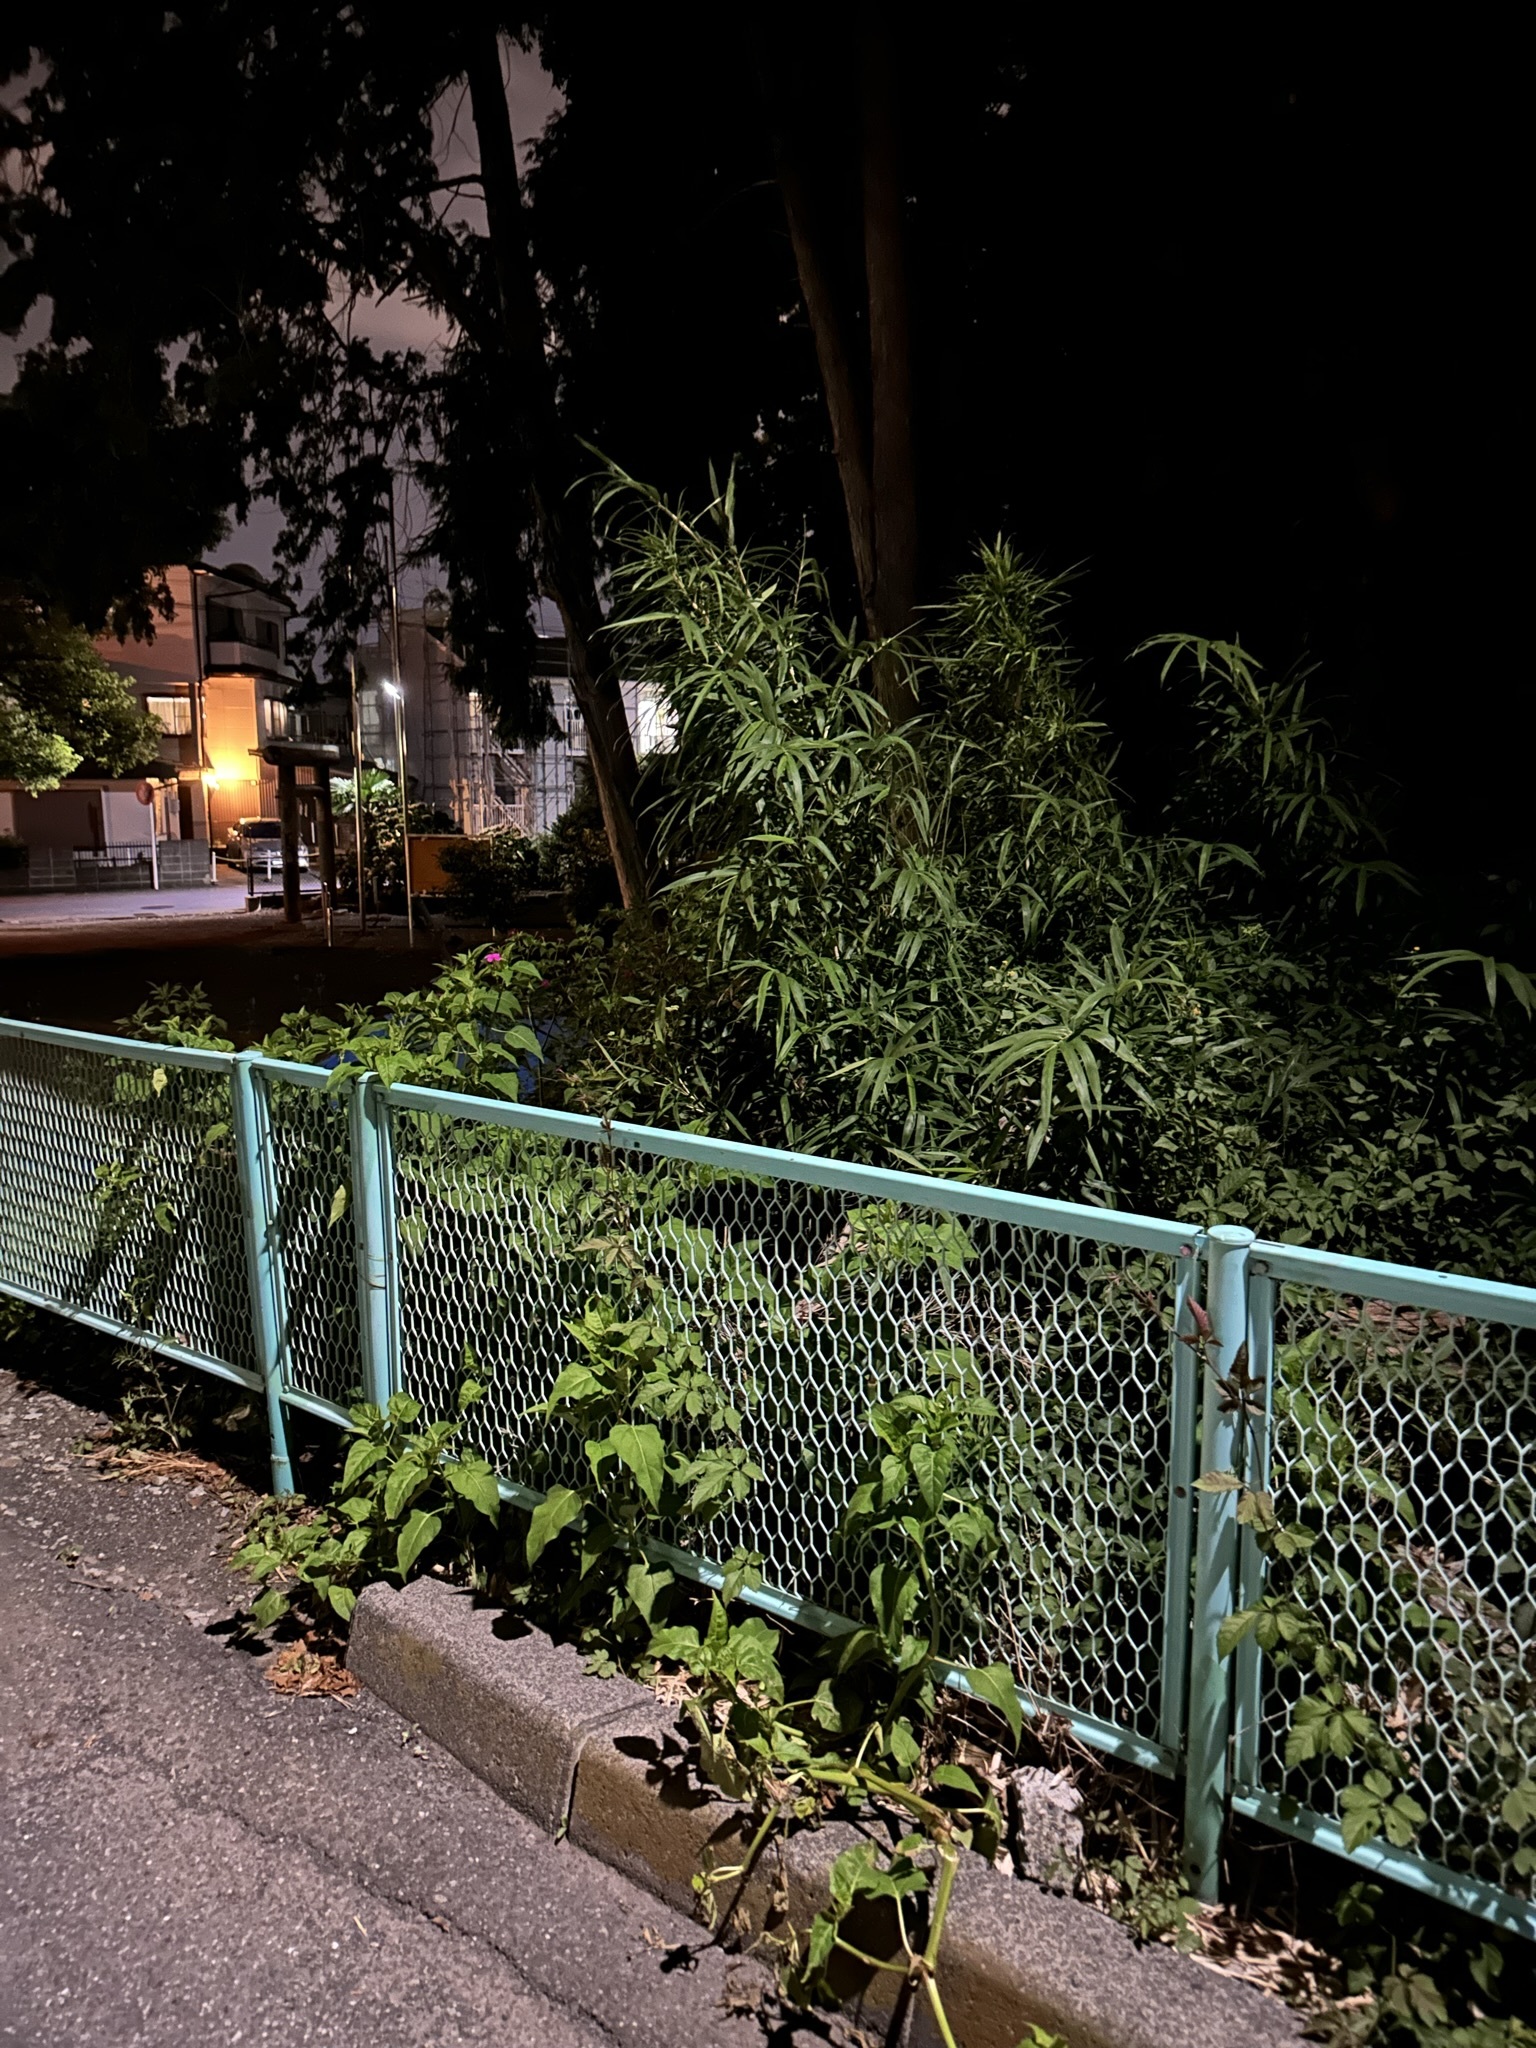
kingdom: Animalia
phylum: Arthropoda
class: Insecta
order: Orthoptera
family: Phalangopsidae
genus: Meloimorpha
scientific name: Meloimorpha japonica
